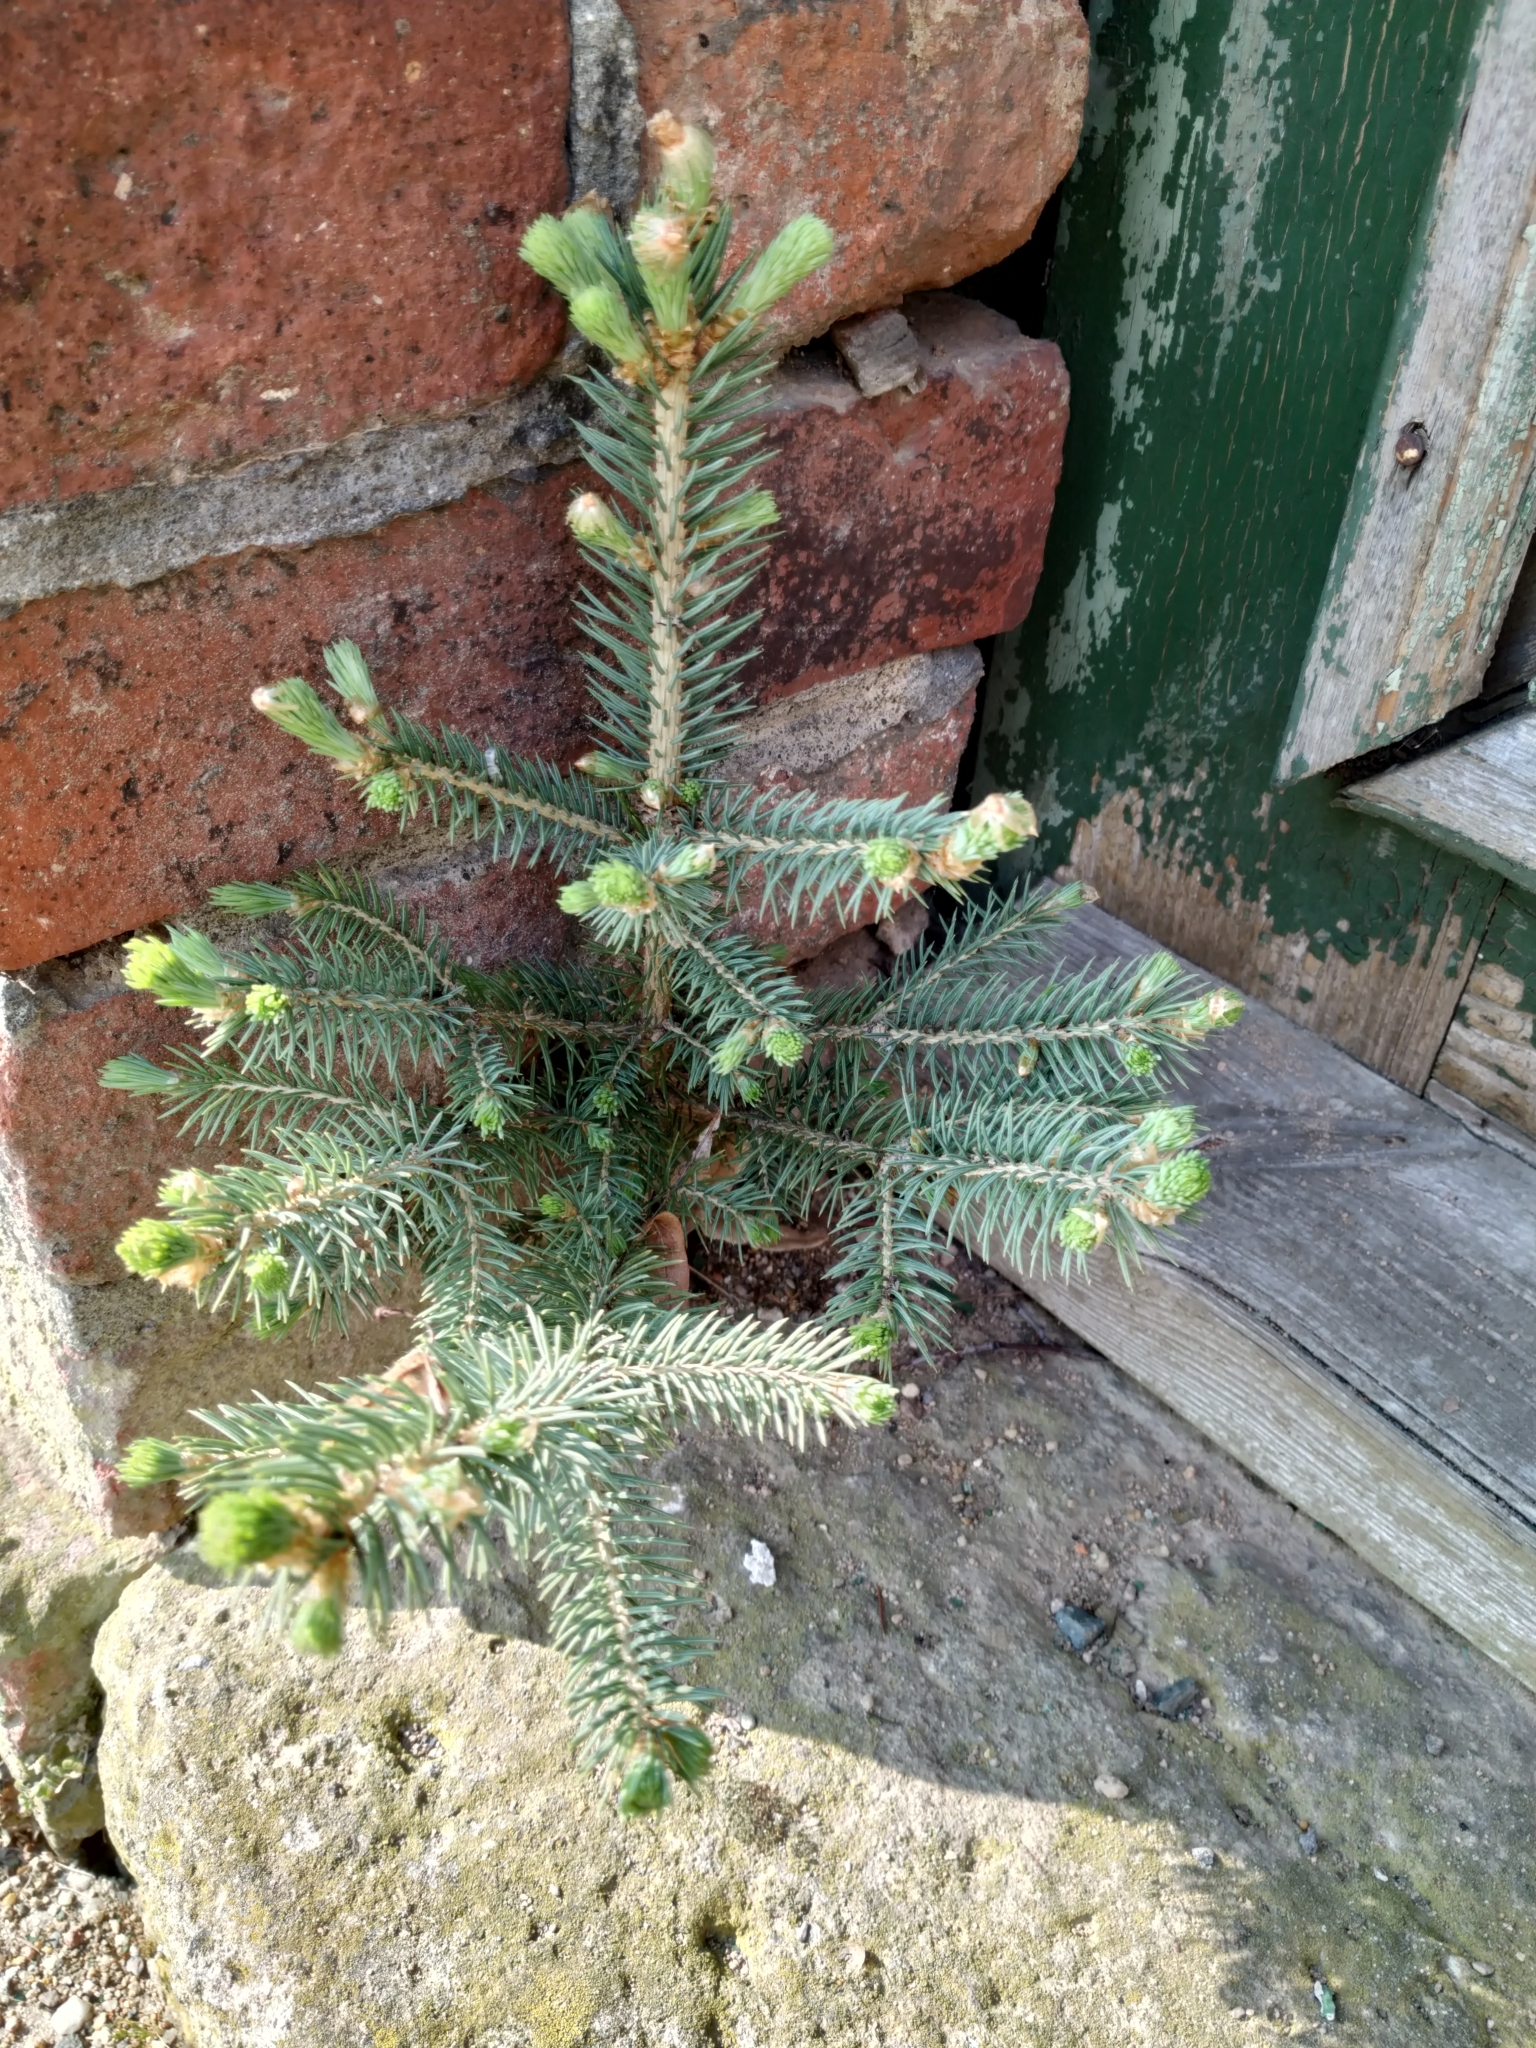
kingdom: Plantae
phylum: Tracheophyta
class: Pinopsida
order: Pinales
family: Pinaceae
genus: Picea
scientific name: Picea pungens
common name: Colorado spruce
